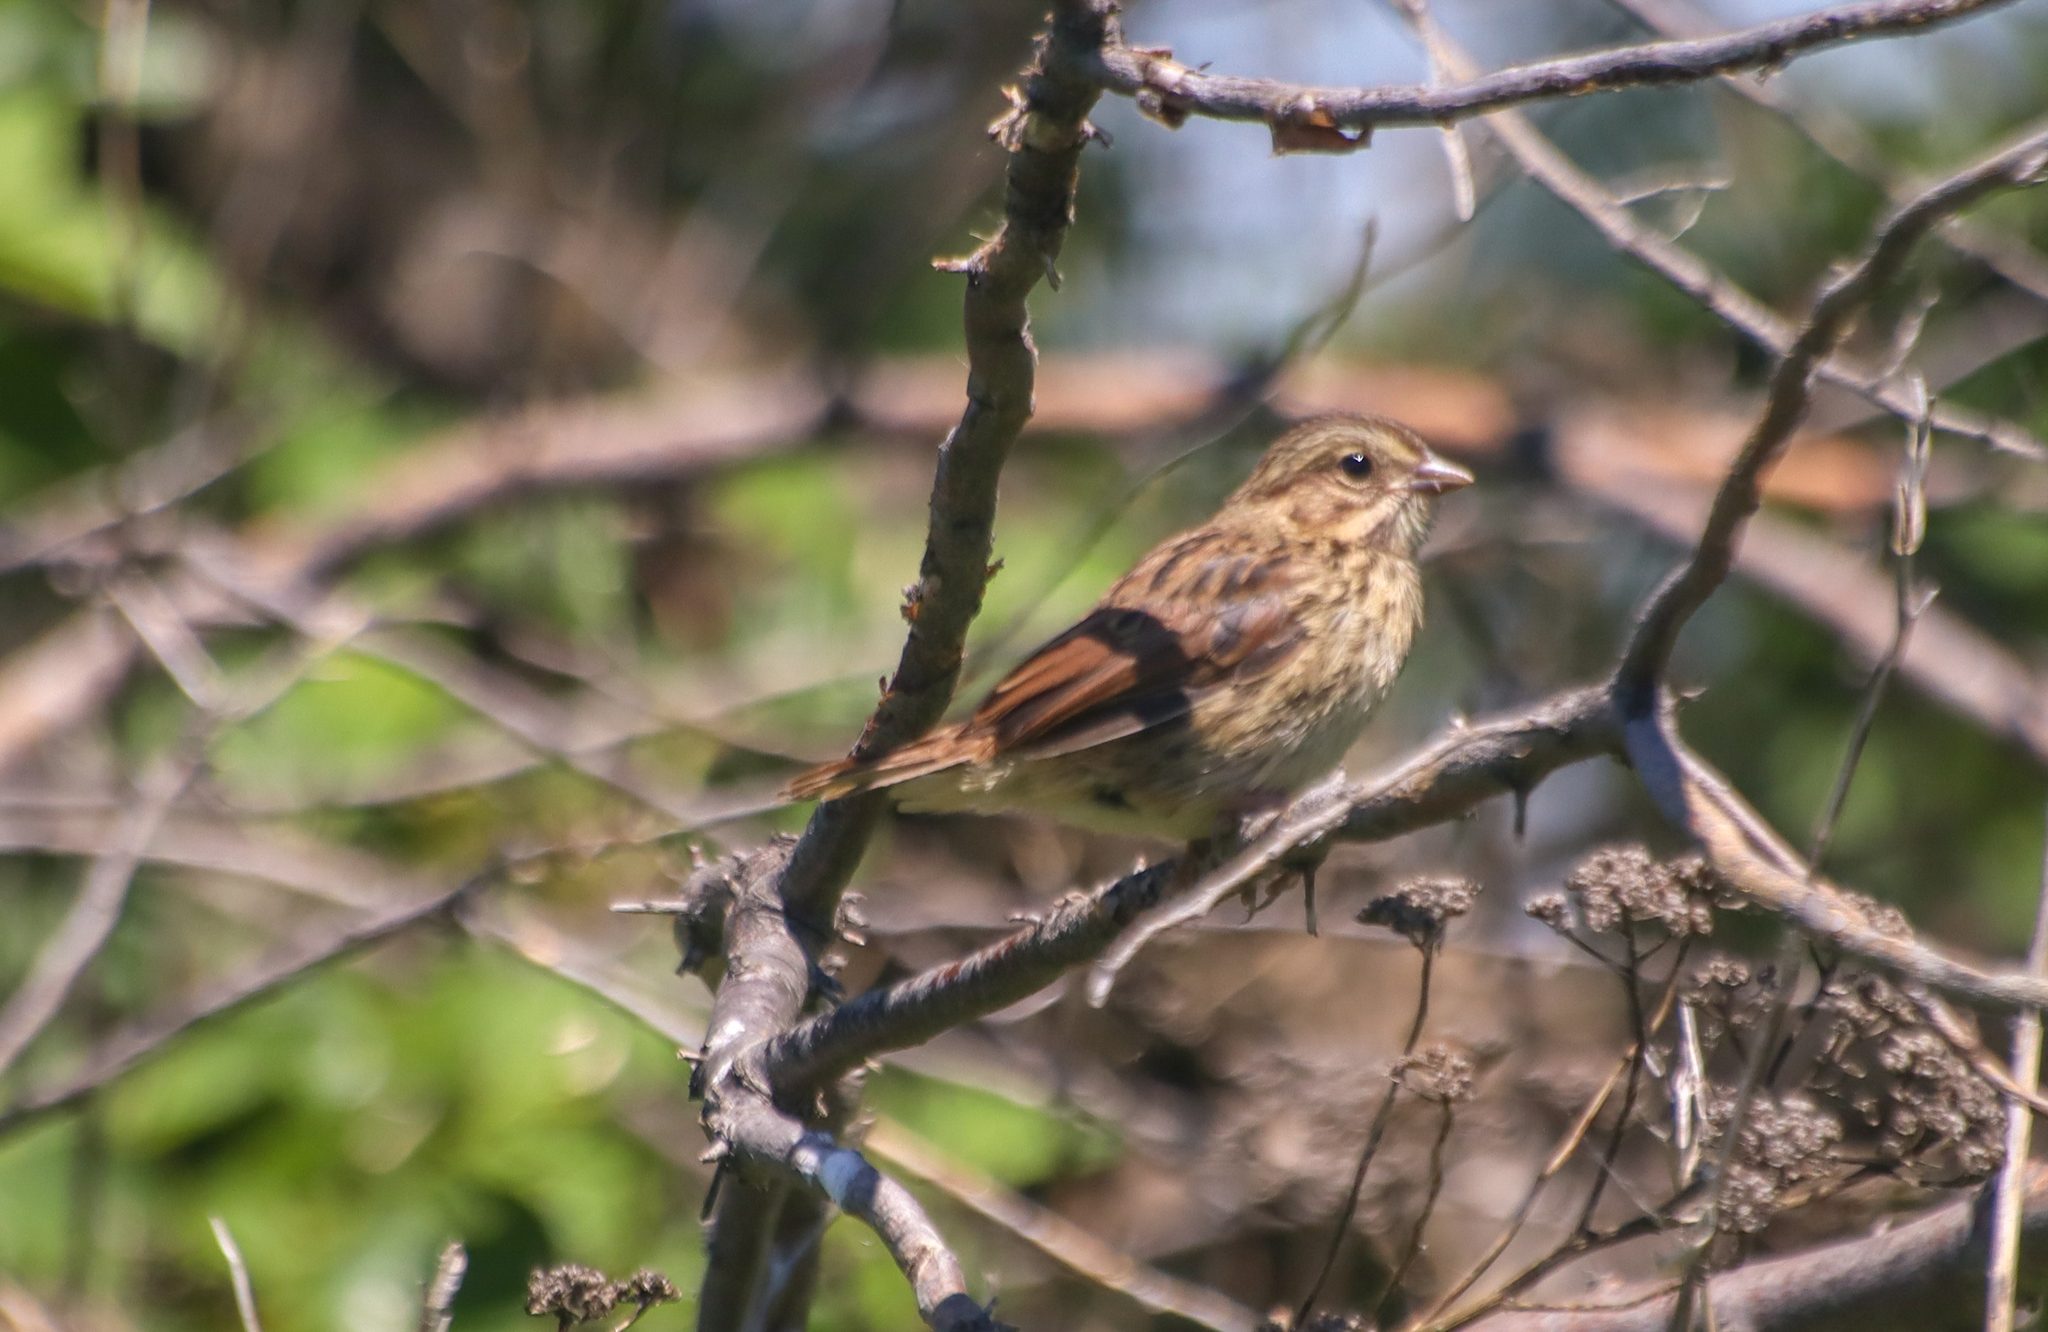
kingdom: Animalia
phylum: Chordata
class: Aves
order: Passeriformes
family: Passerellidae
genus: Melospiza
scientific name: Melospiza melodia
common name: Song sparrow
